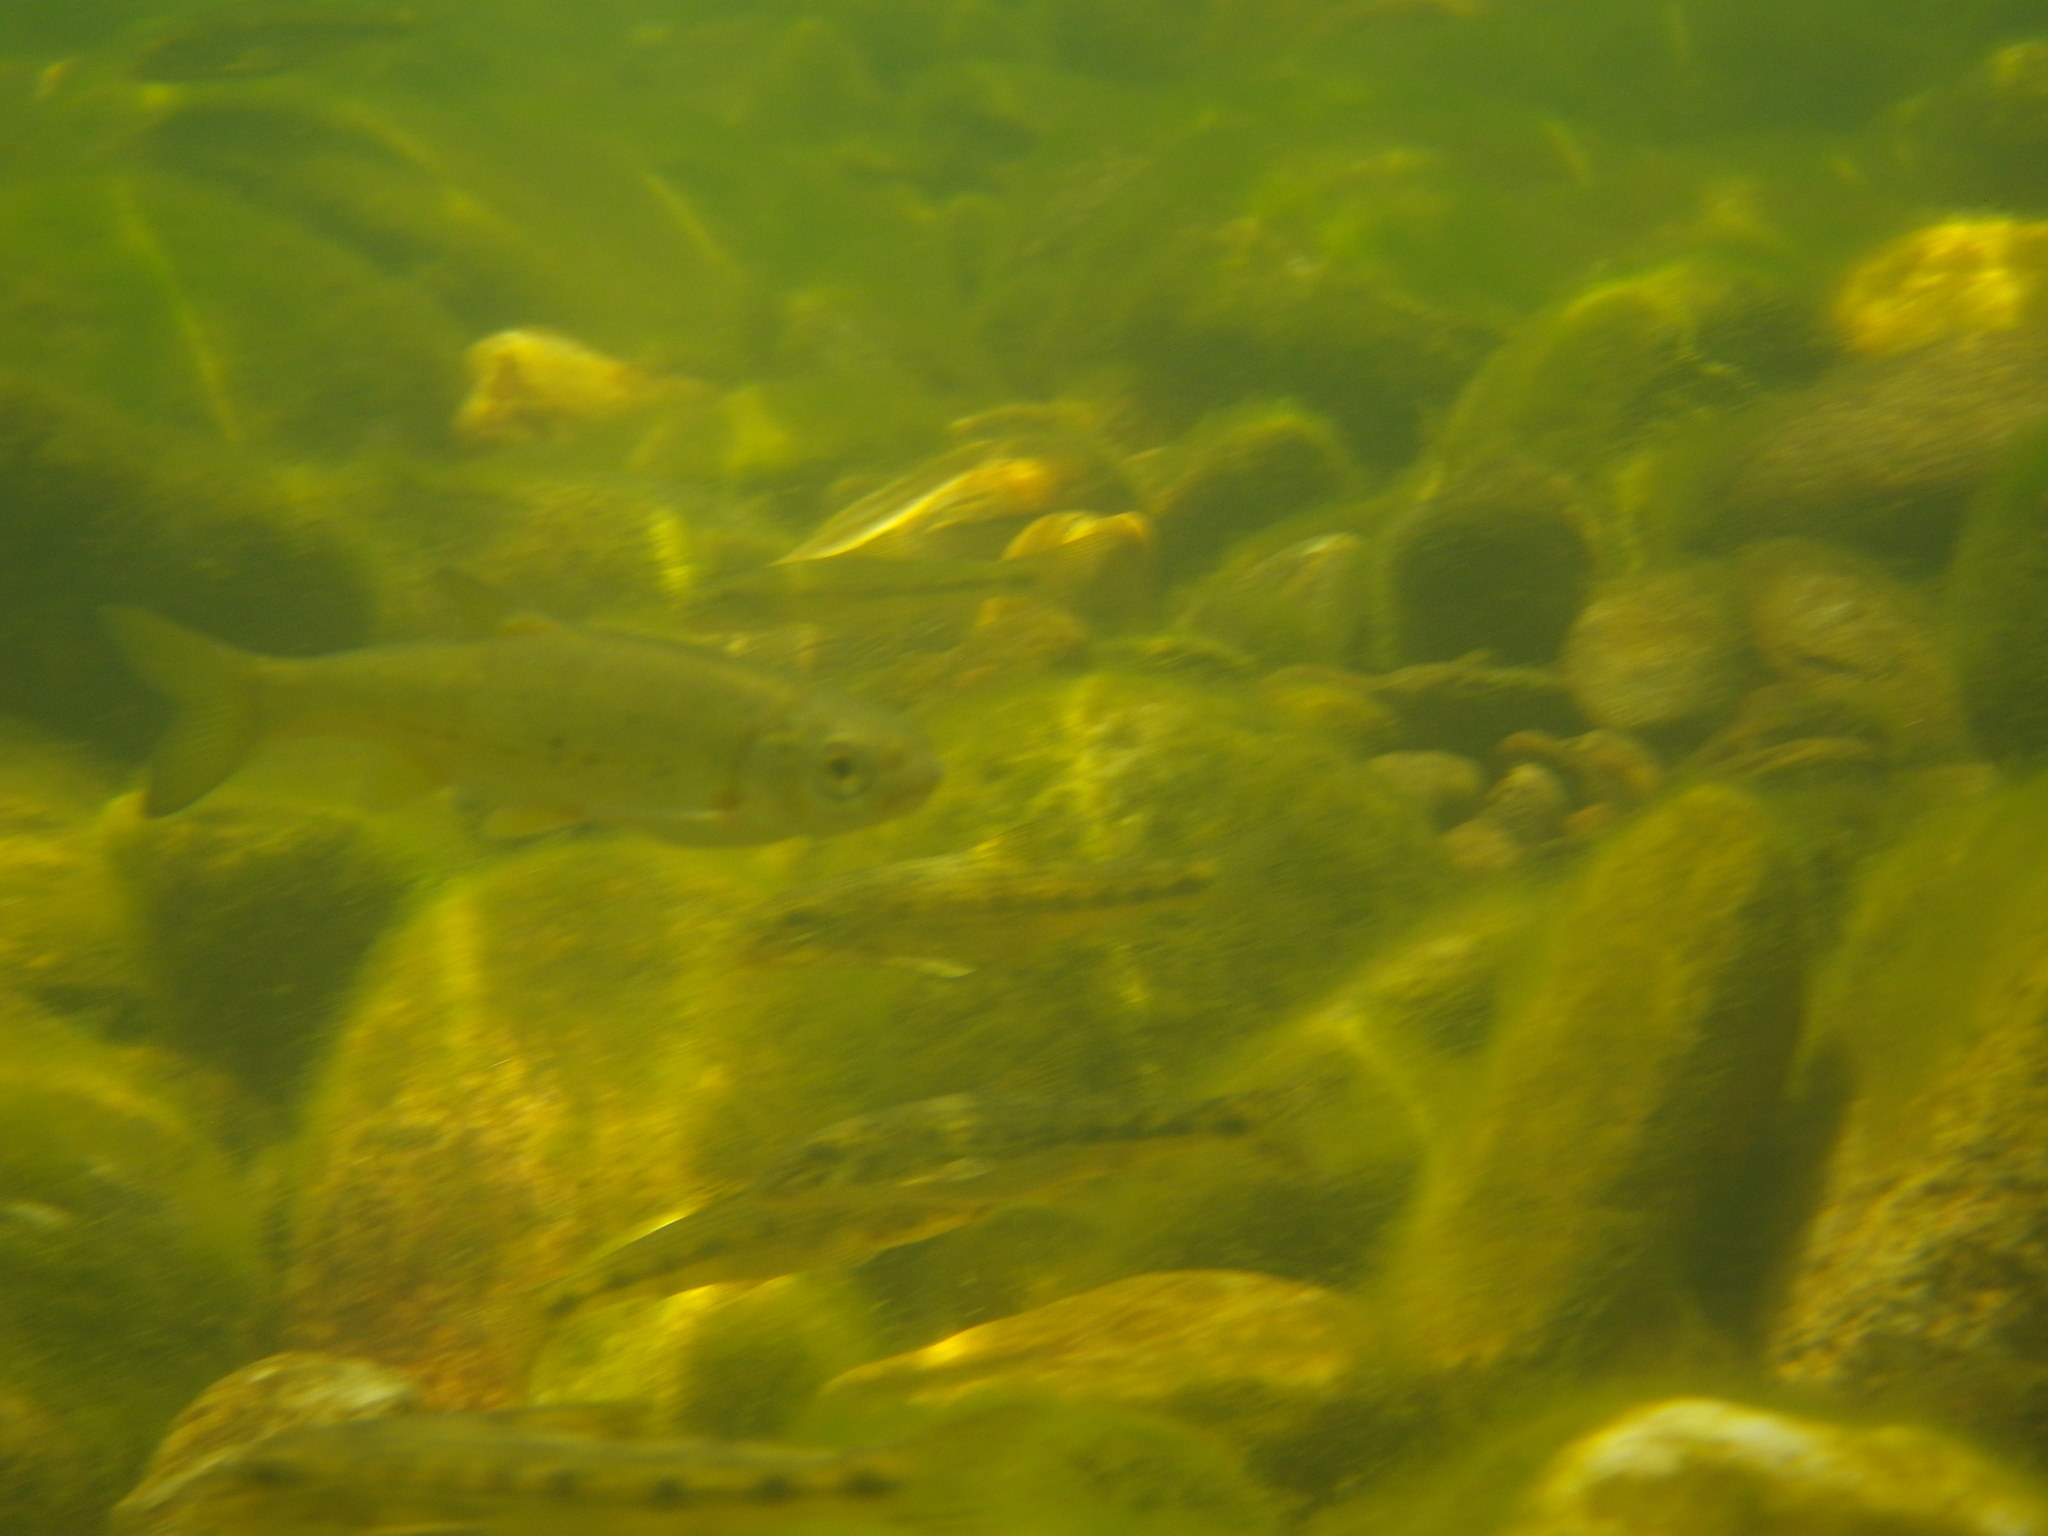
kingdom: Animalia
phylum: Chordata
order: Cypriniformes
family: Cyprinidae
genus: Telestes
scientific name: Telestes souffia
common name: Souffia
